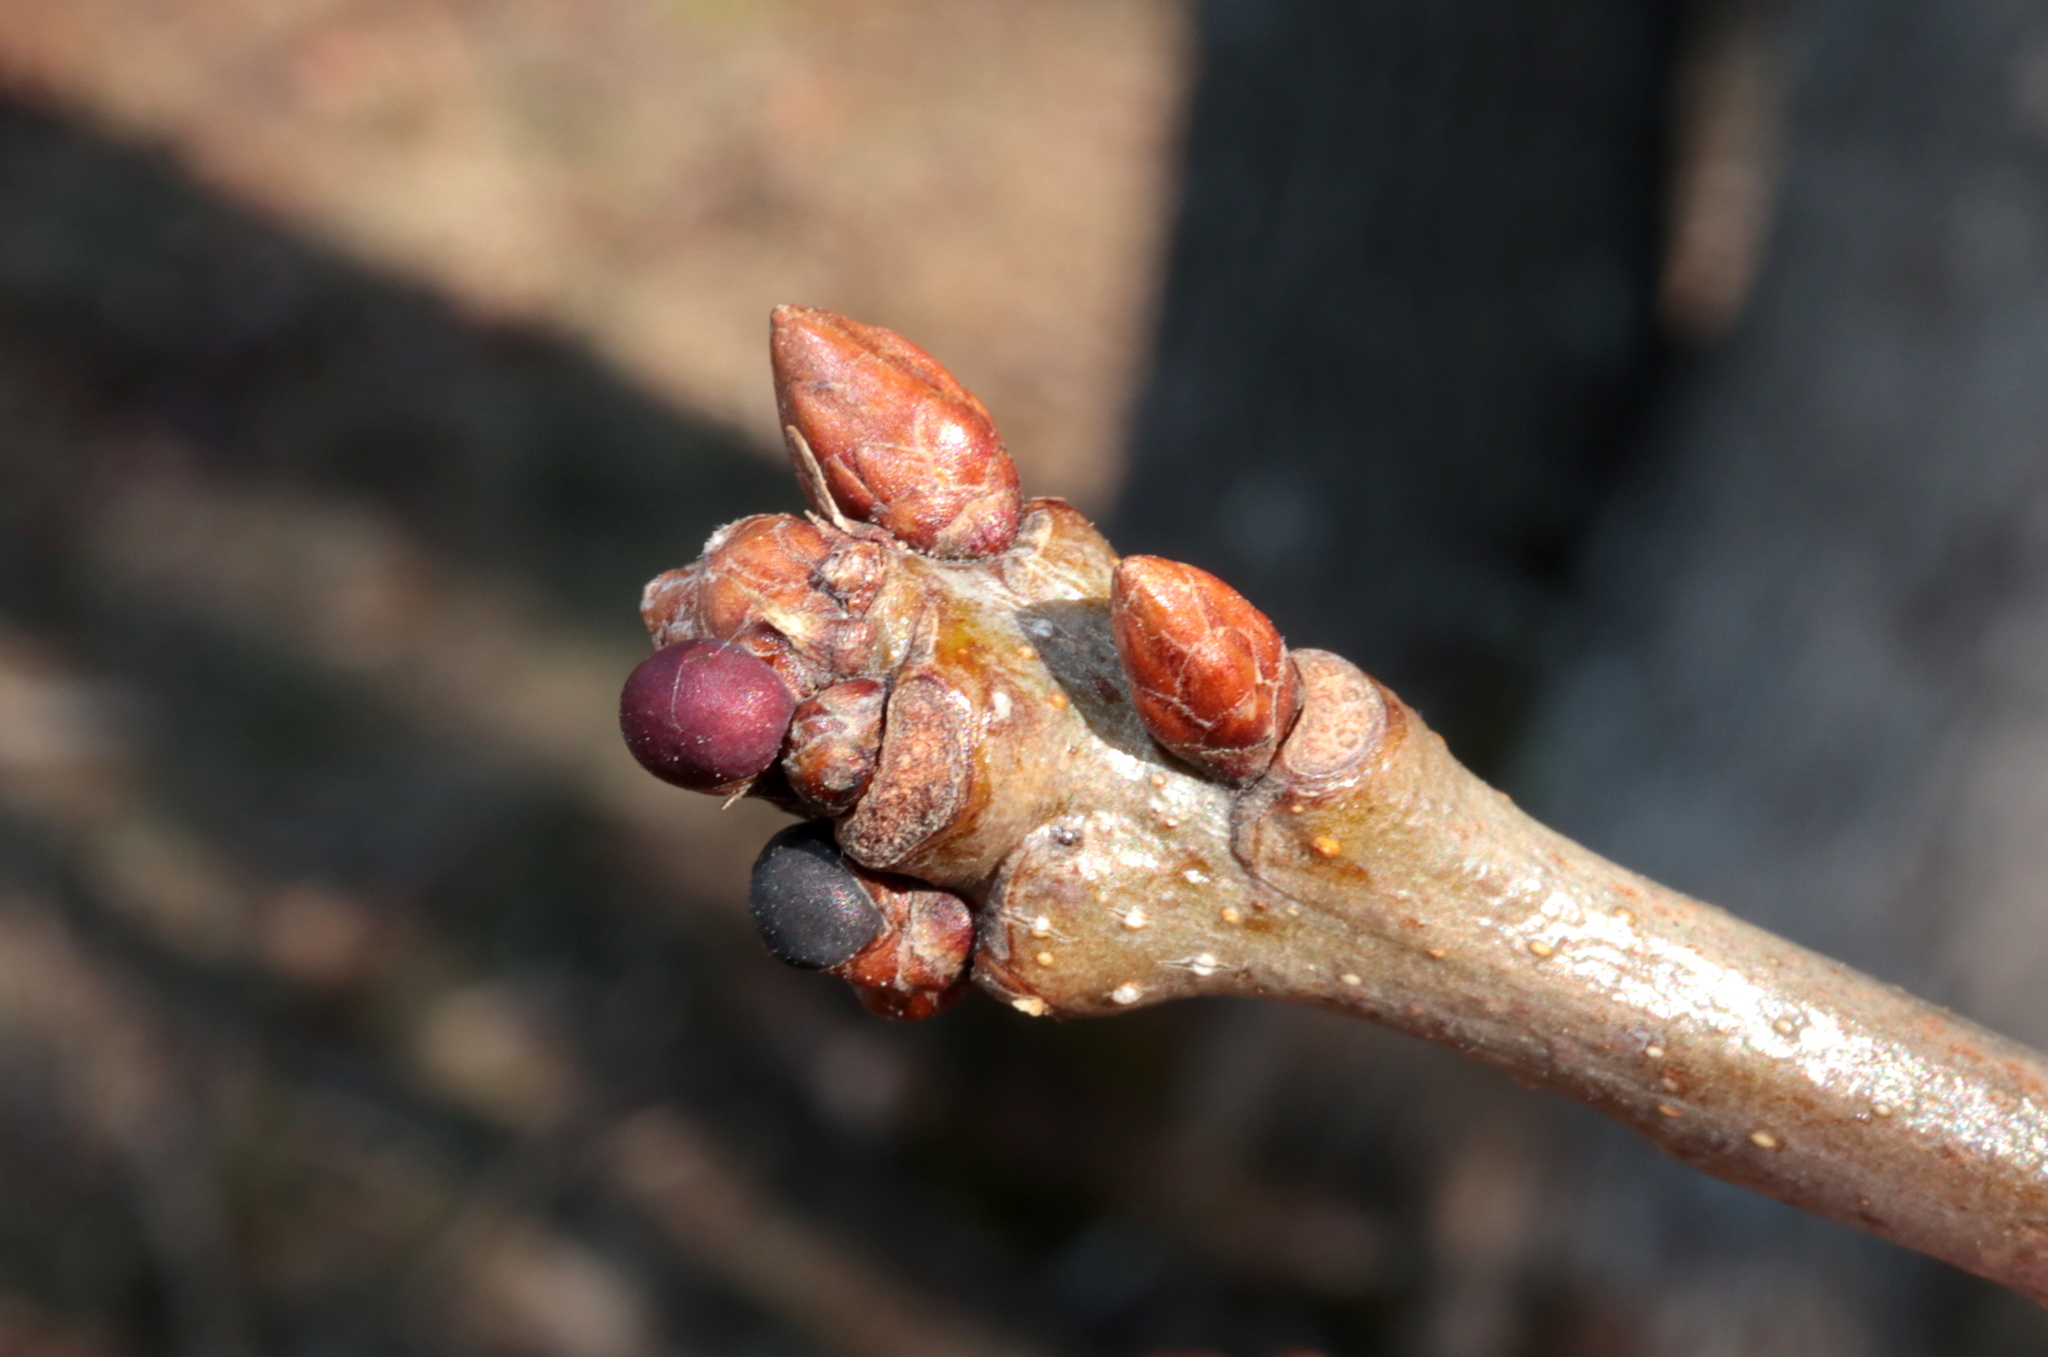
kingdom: Animalia
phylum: Arthropoda
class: Insecta
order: Hymenoptera
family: Cynipidae
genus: Neuroterus
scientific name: Neuroterus
